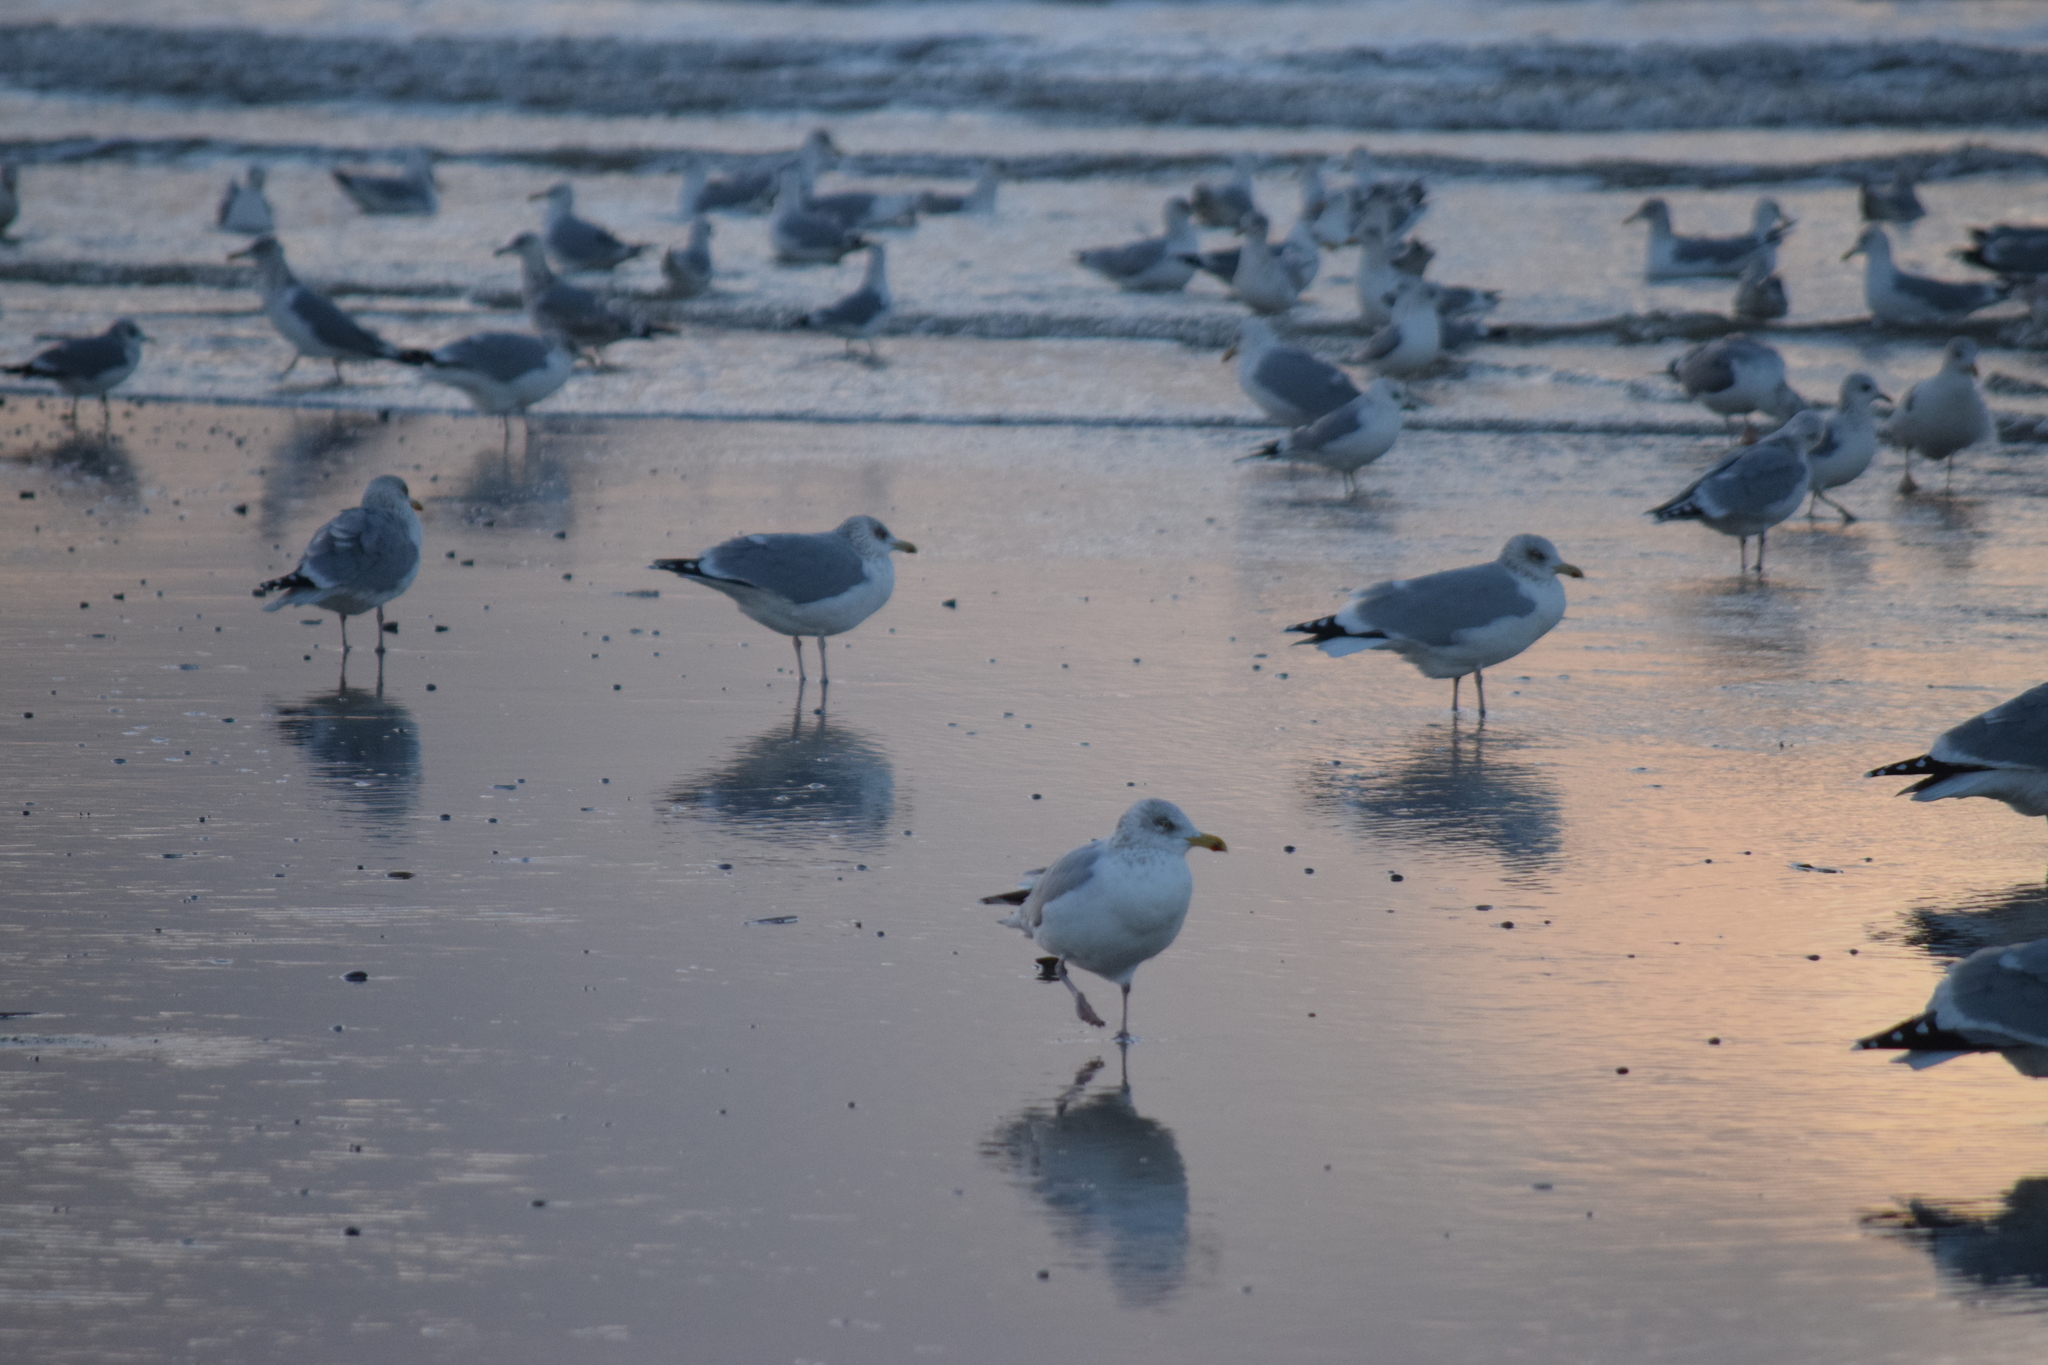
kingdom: Animalia
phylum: Chordata
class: Aves
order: Charadriiformes
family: Laridae
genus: Larus
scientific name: Larus argentatus
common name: Herring gull
